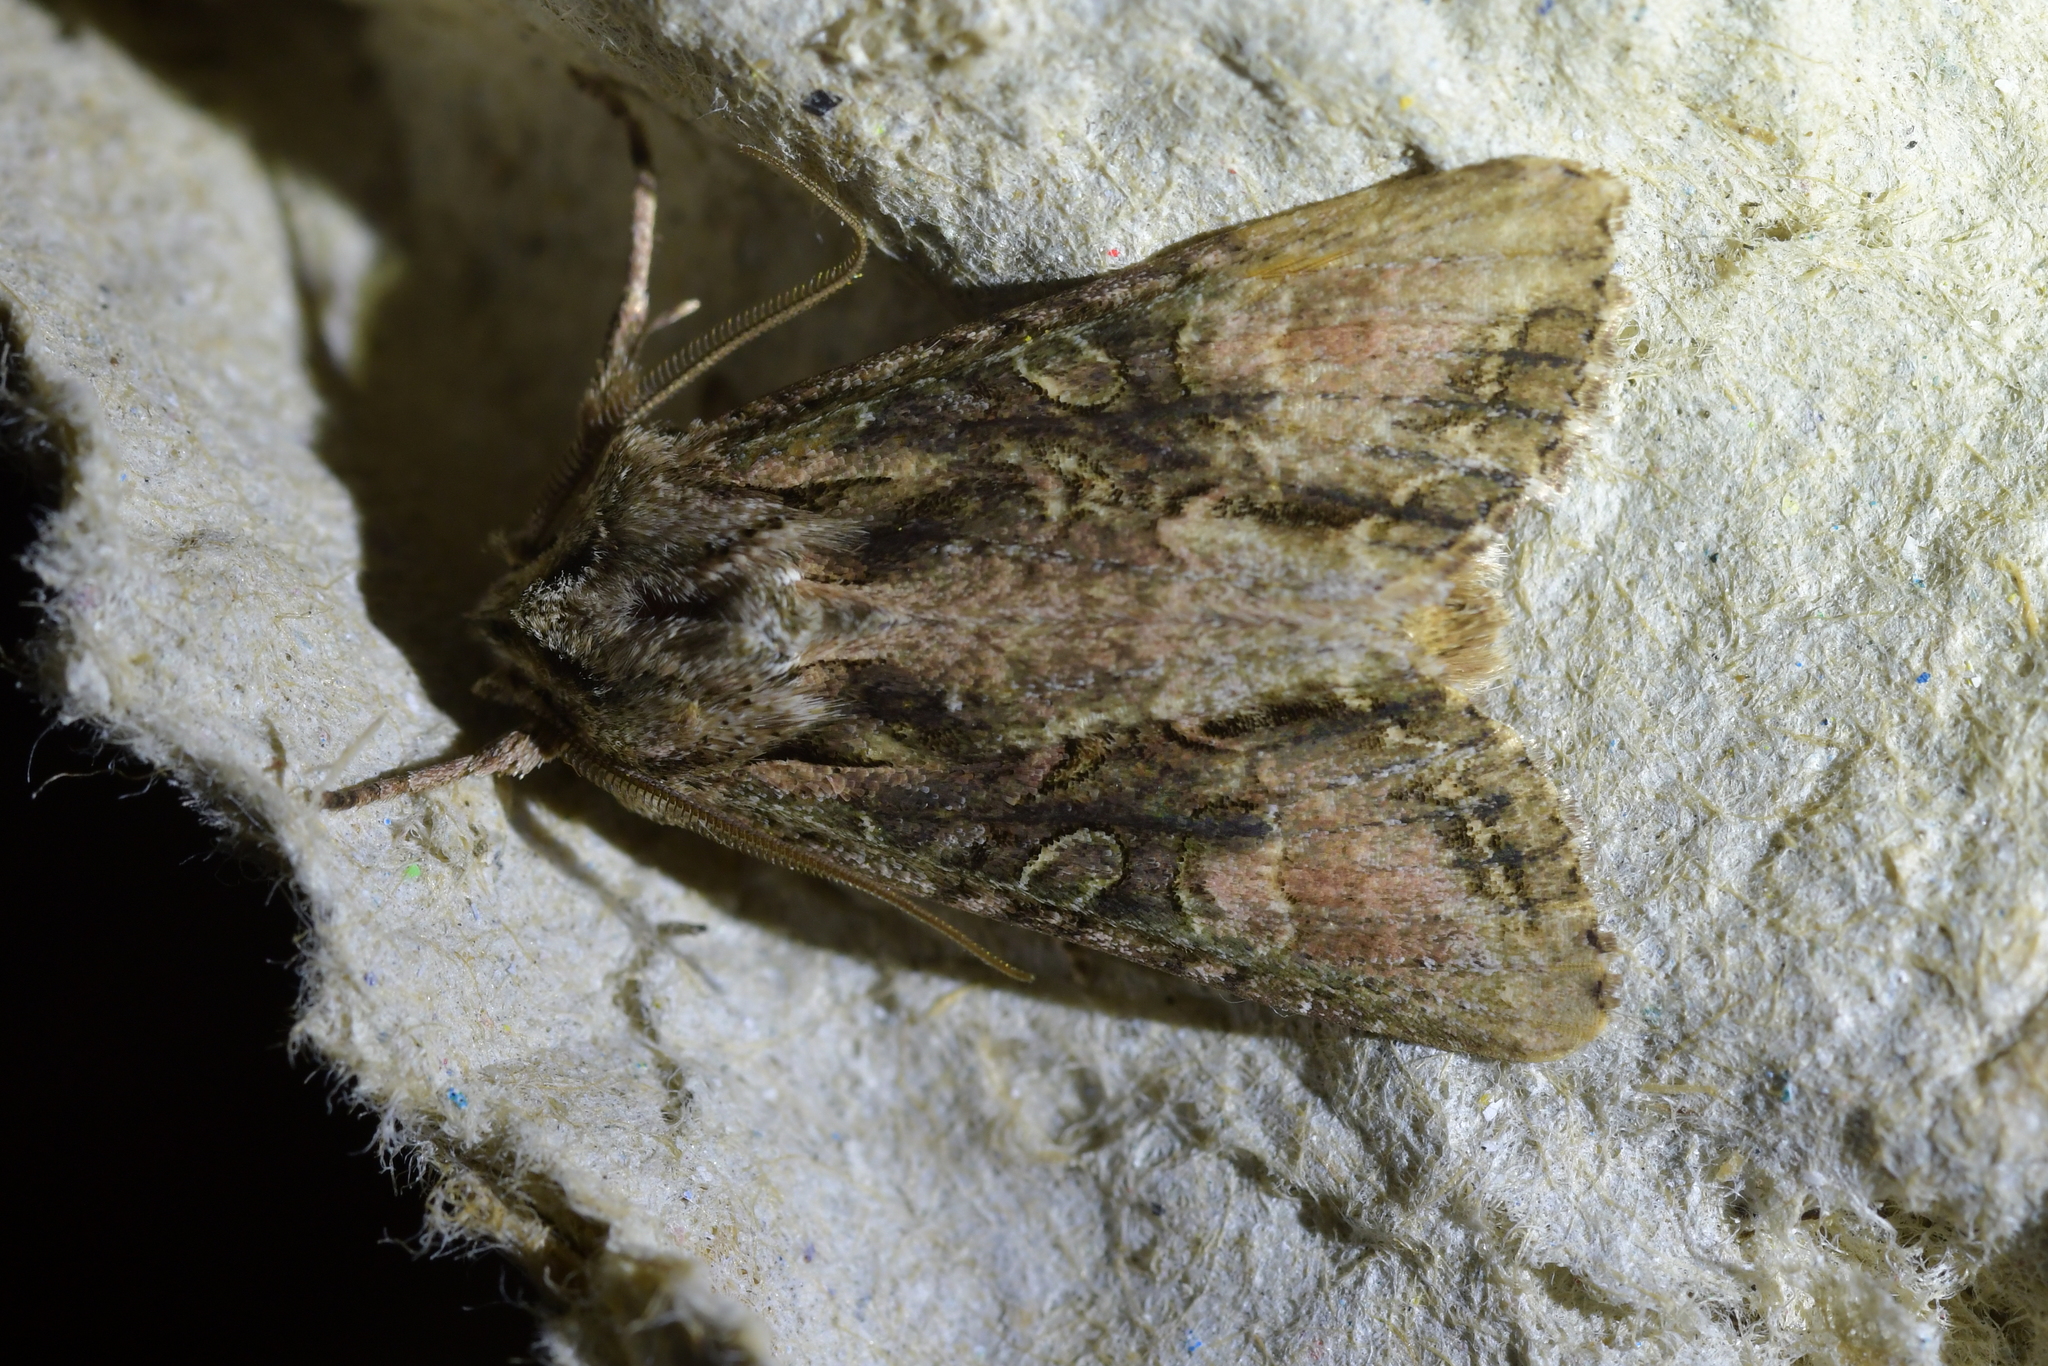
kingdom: Animalia
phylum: Arthropoda
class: Insecta
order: Lepidoptera
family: Noctuidae
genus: Ichneutica
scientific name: Ichneutica mutans
